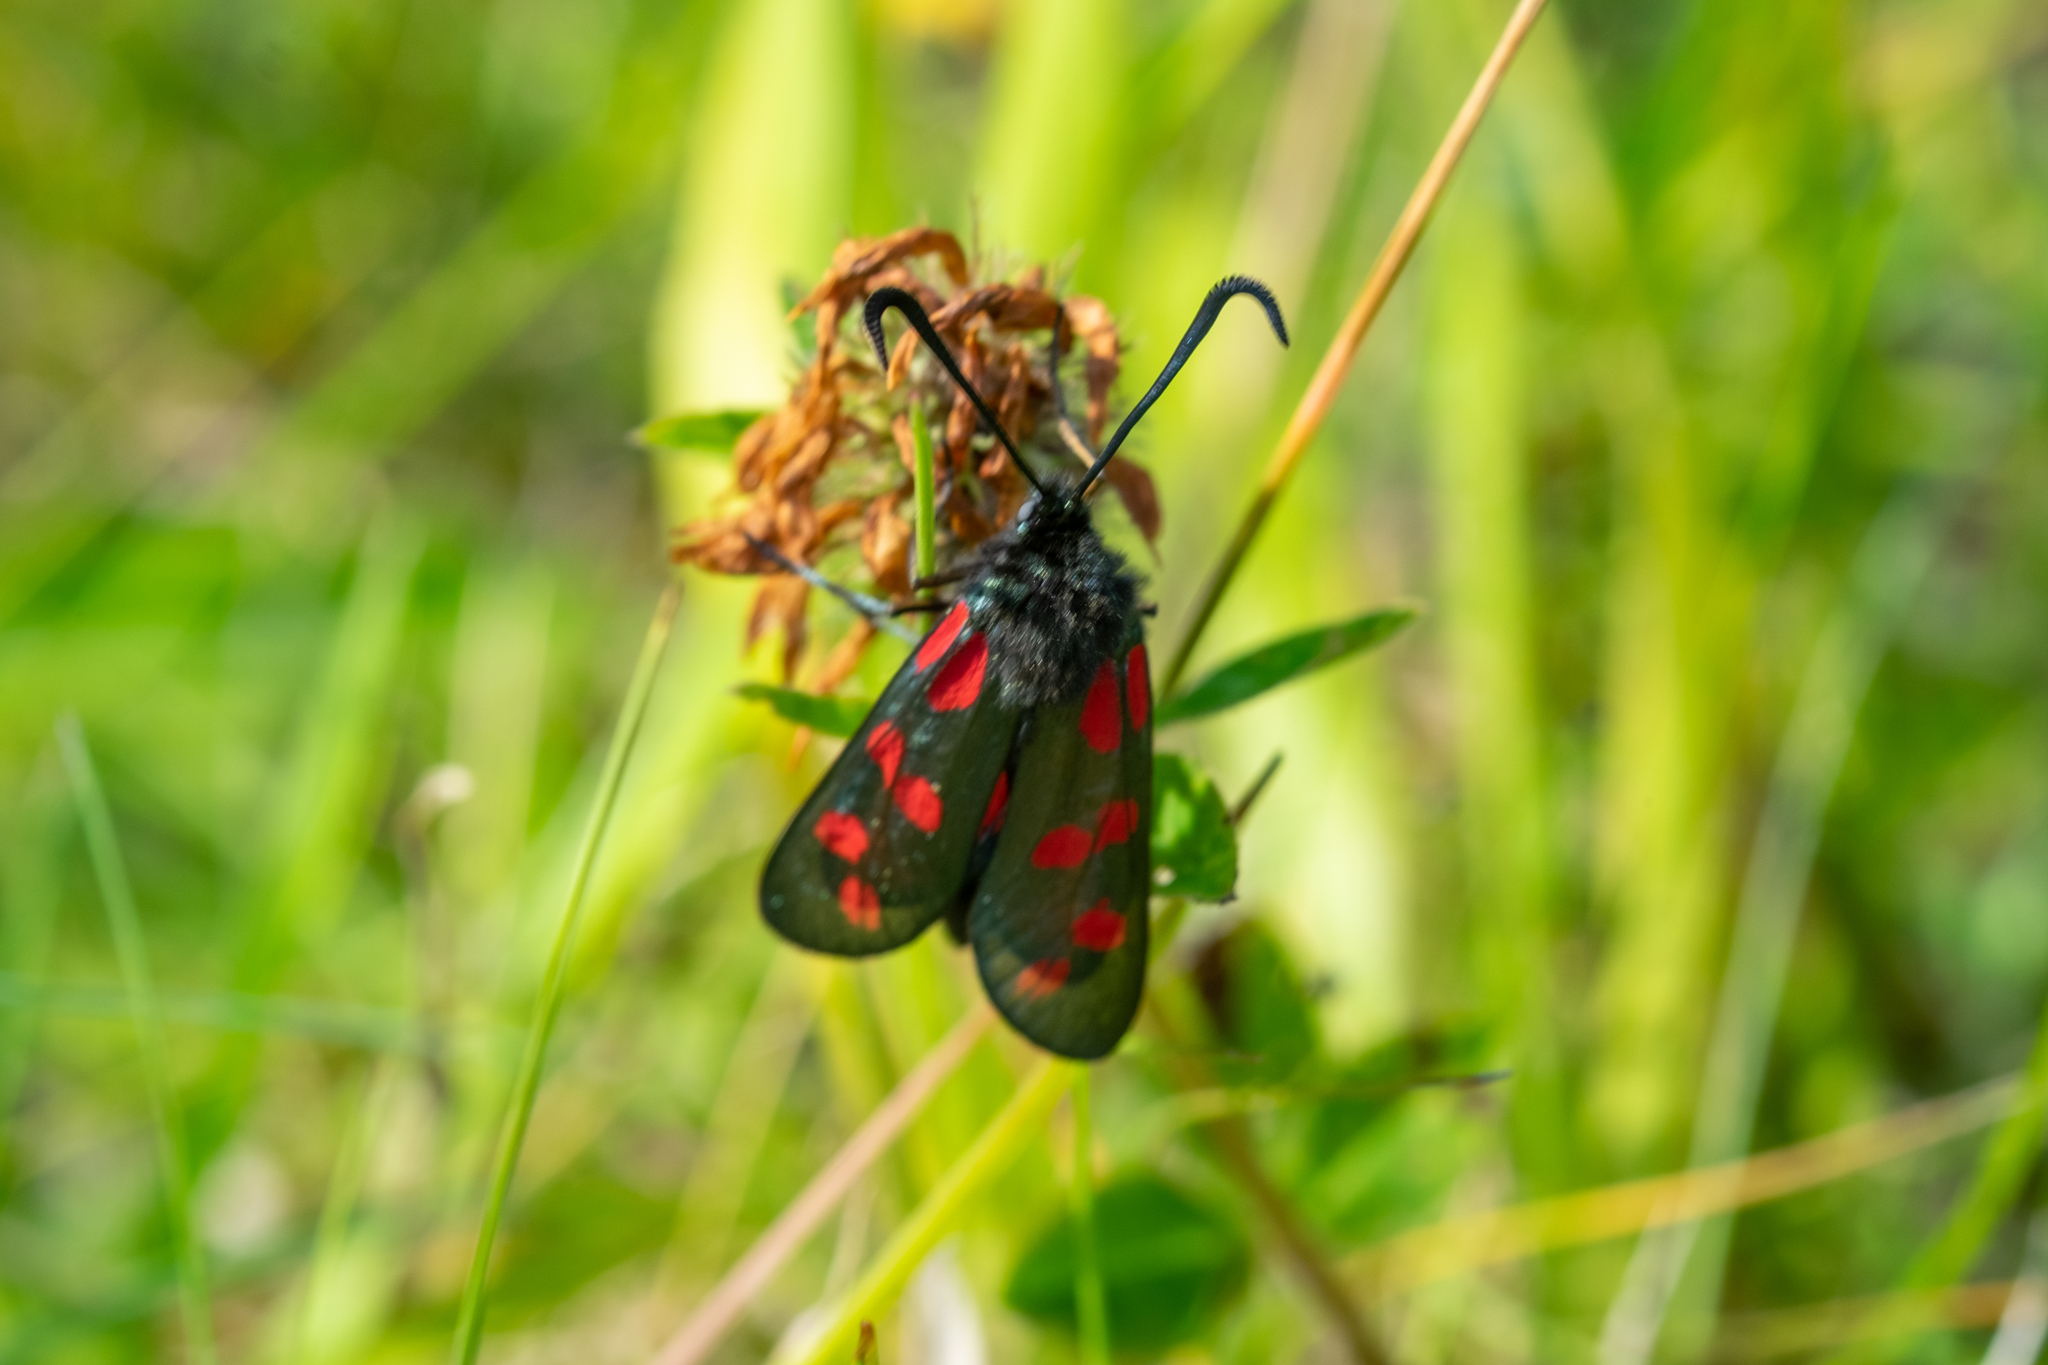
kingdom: Animalia
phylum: Arthropoda
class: Insecta
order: Lepidoptera
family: Zygaenidae
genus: Zygaena
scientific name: Zygaena filipendulae
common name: Six-spot burnet
